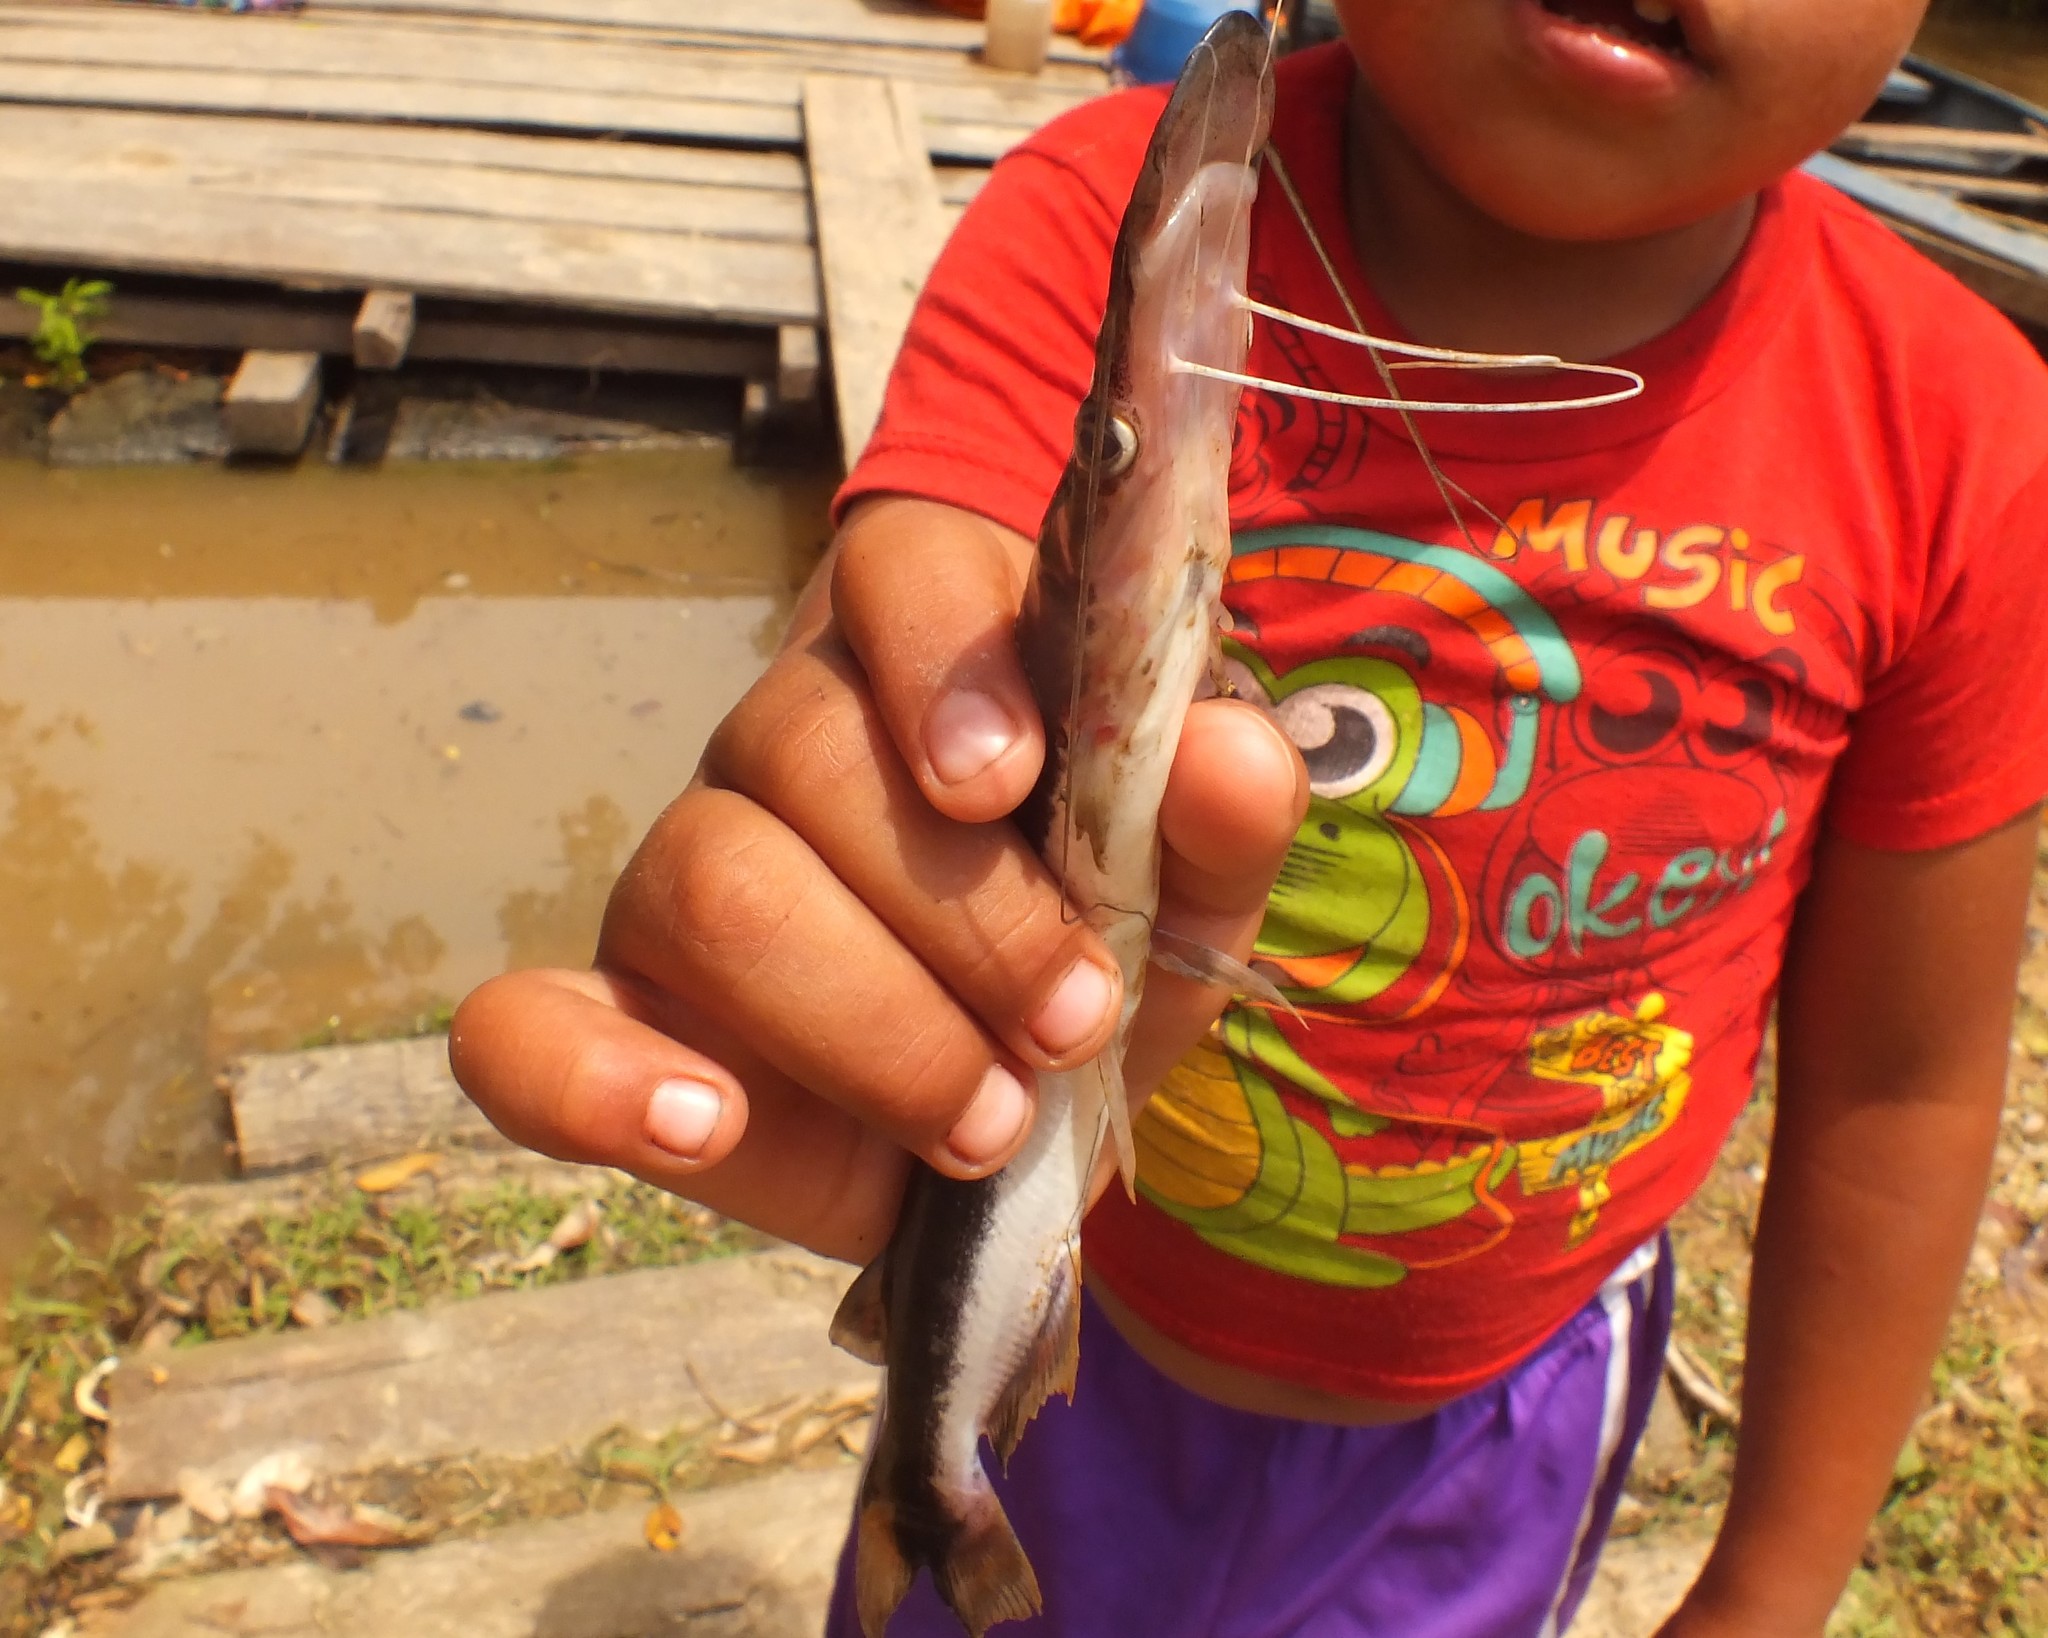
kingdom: Animalia
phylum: Chordata
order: Siluriformes
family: Pimelodidae
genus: Sorubim
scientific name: Sorubim elongatus
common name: Slender shovelnose catfish
